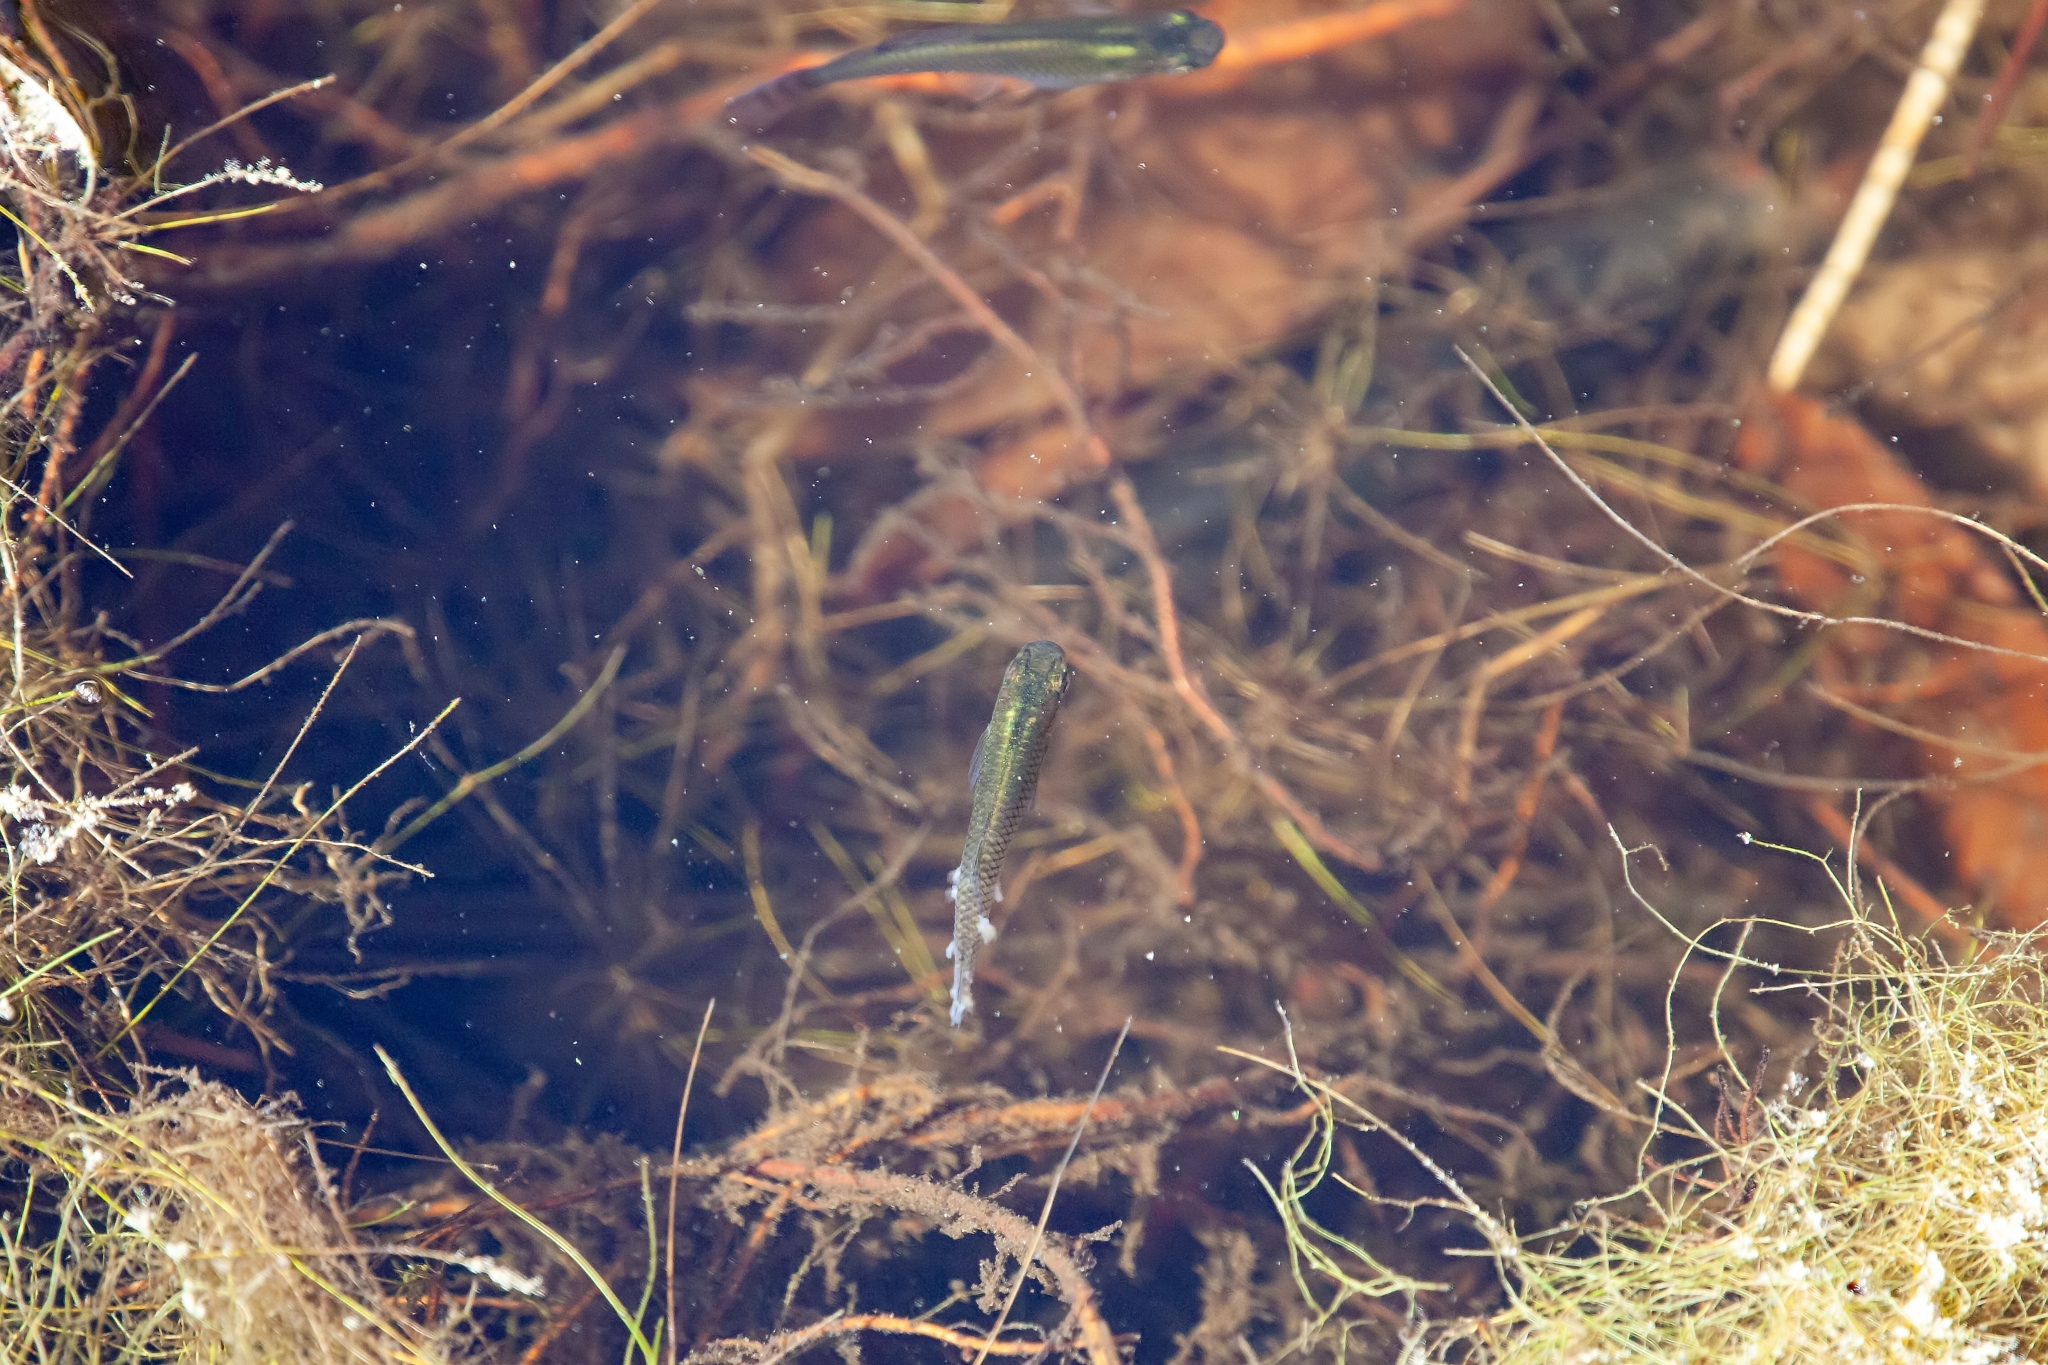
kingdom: Animalia
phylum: Chordata
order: Cyprinodontiformes
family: Poeciliidae
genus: Gambusia
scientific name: Gambusia holbrooki
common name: Eastern mosquitofish
